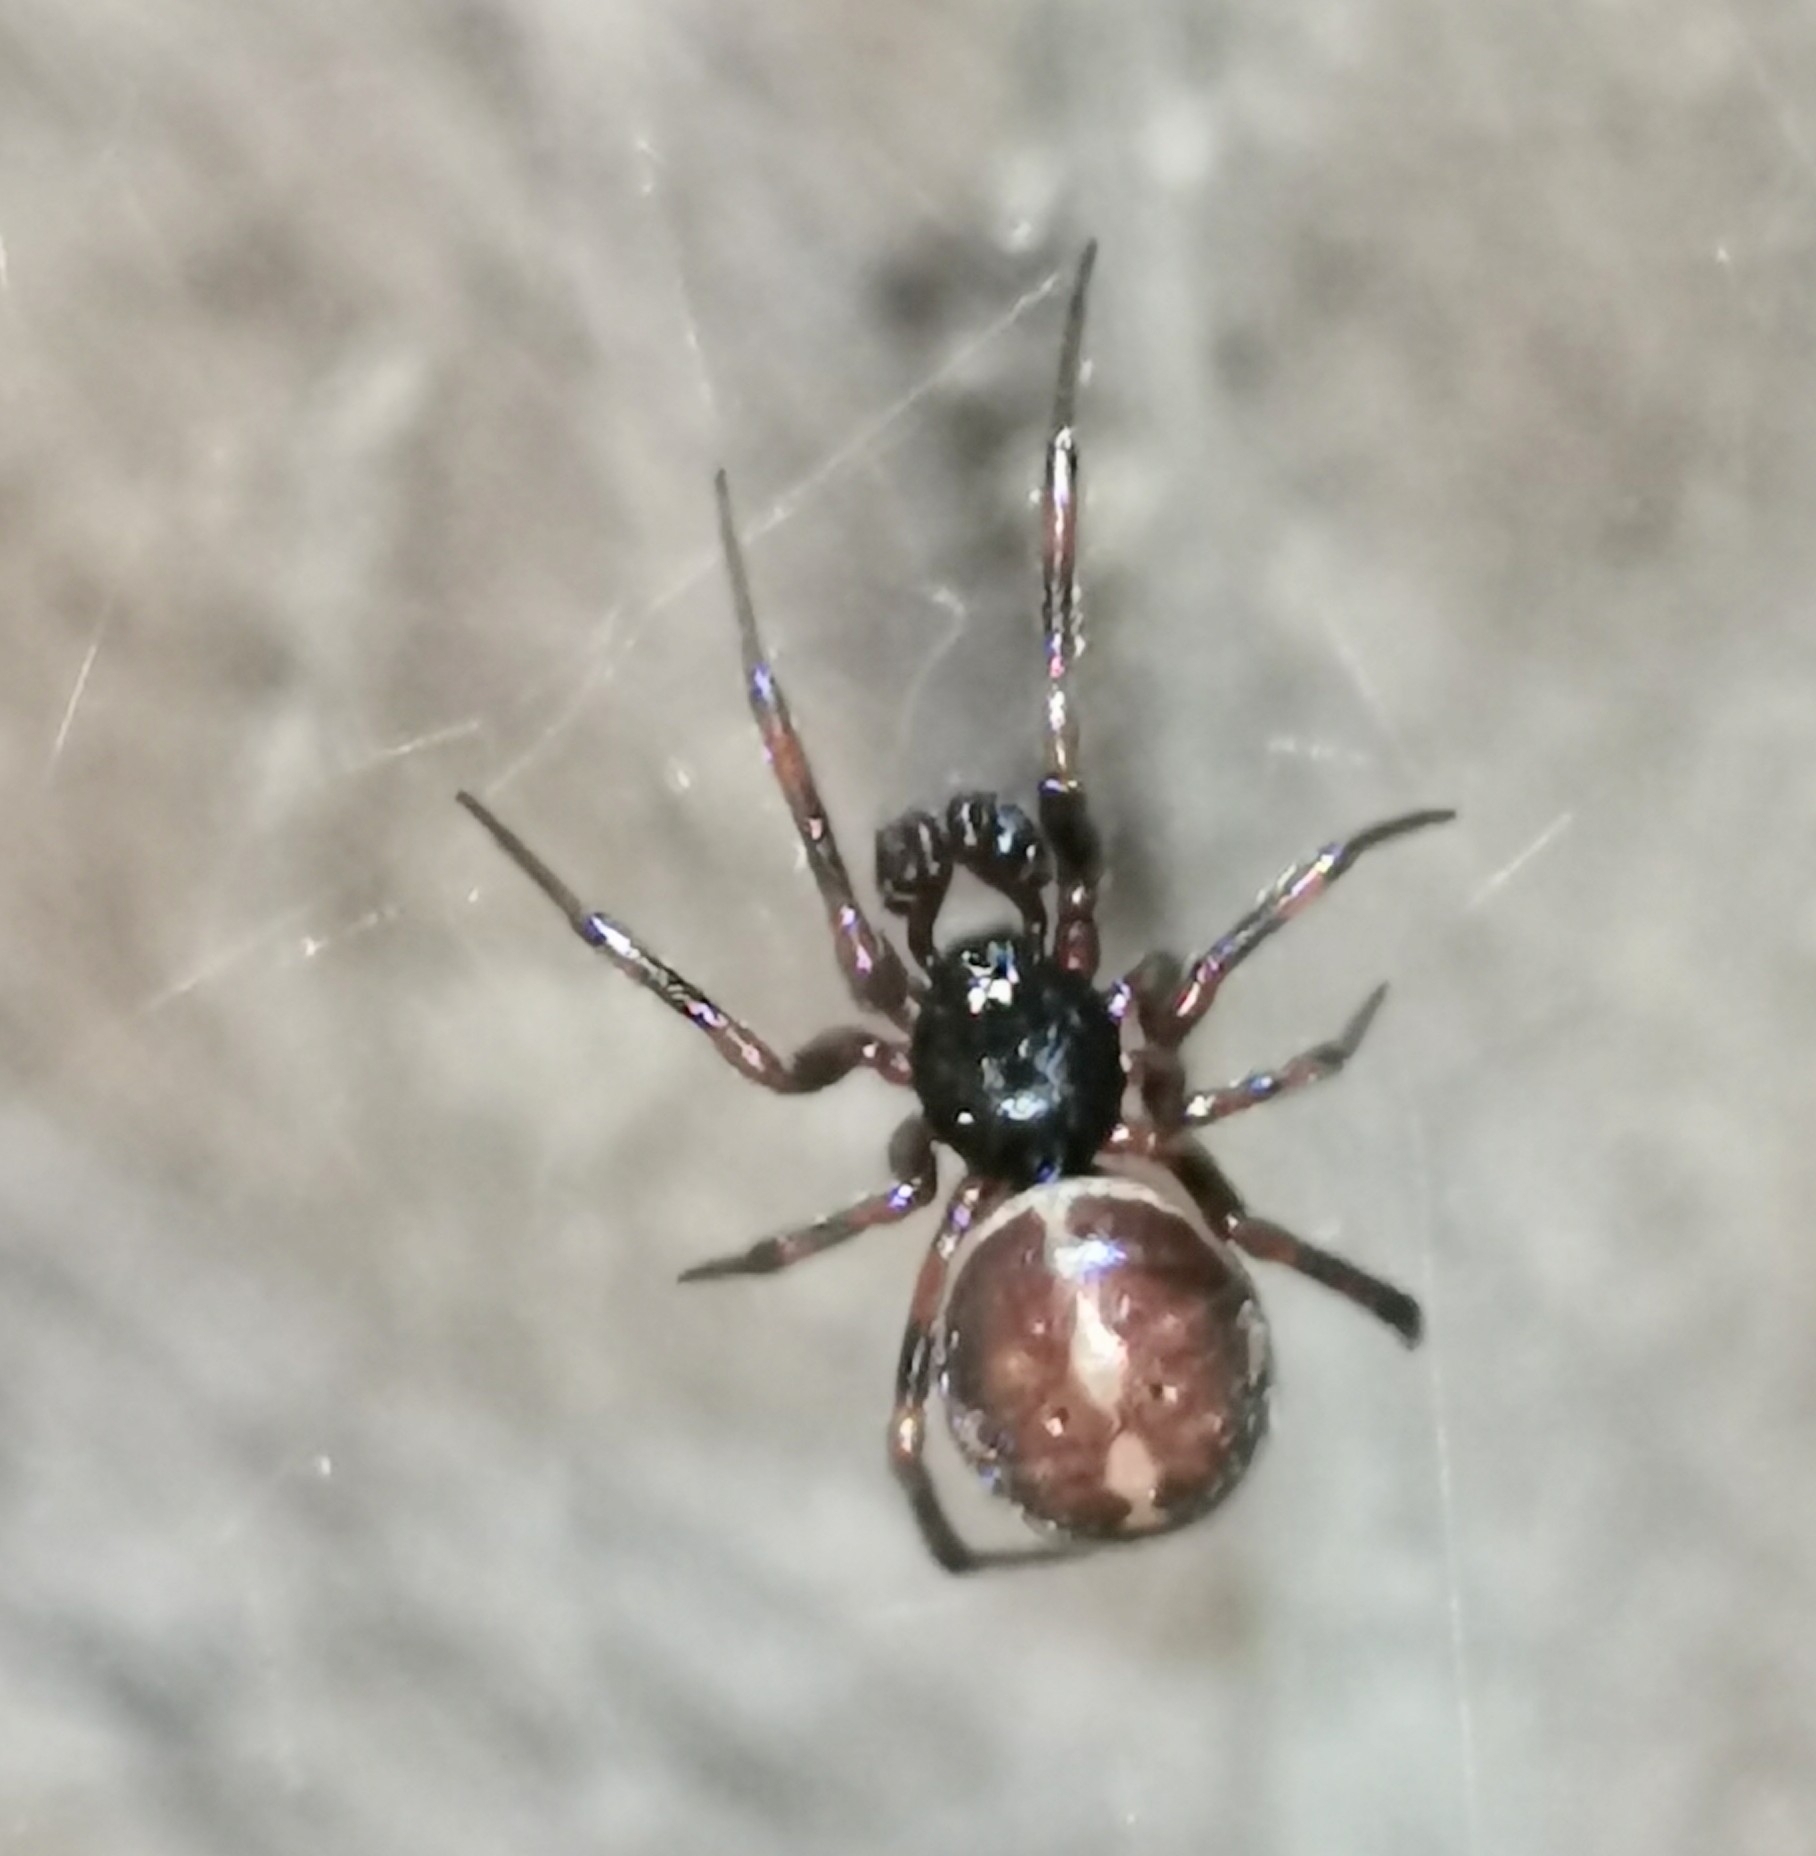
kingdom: Animalia
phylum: Arthropoda
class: Arachnida
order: Araneae
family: Theridiidae
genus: Steatoda
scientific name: Steatoda bipunctata
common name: False widow
